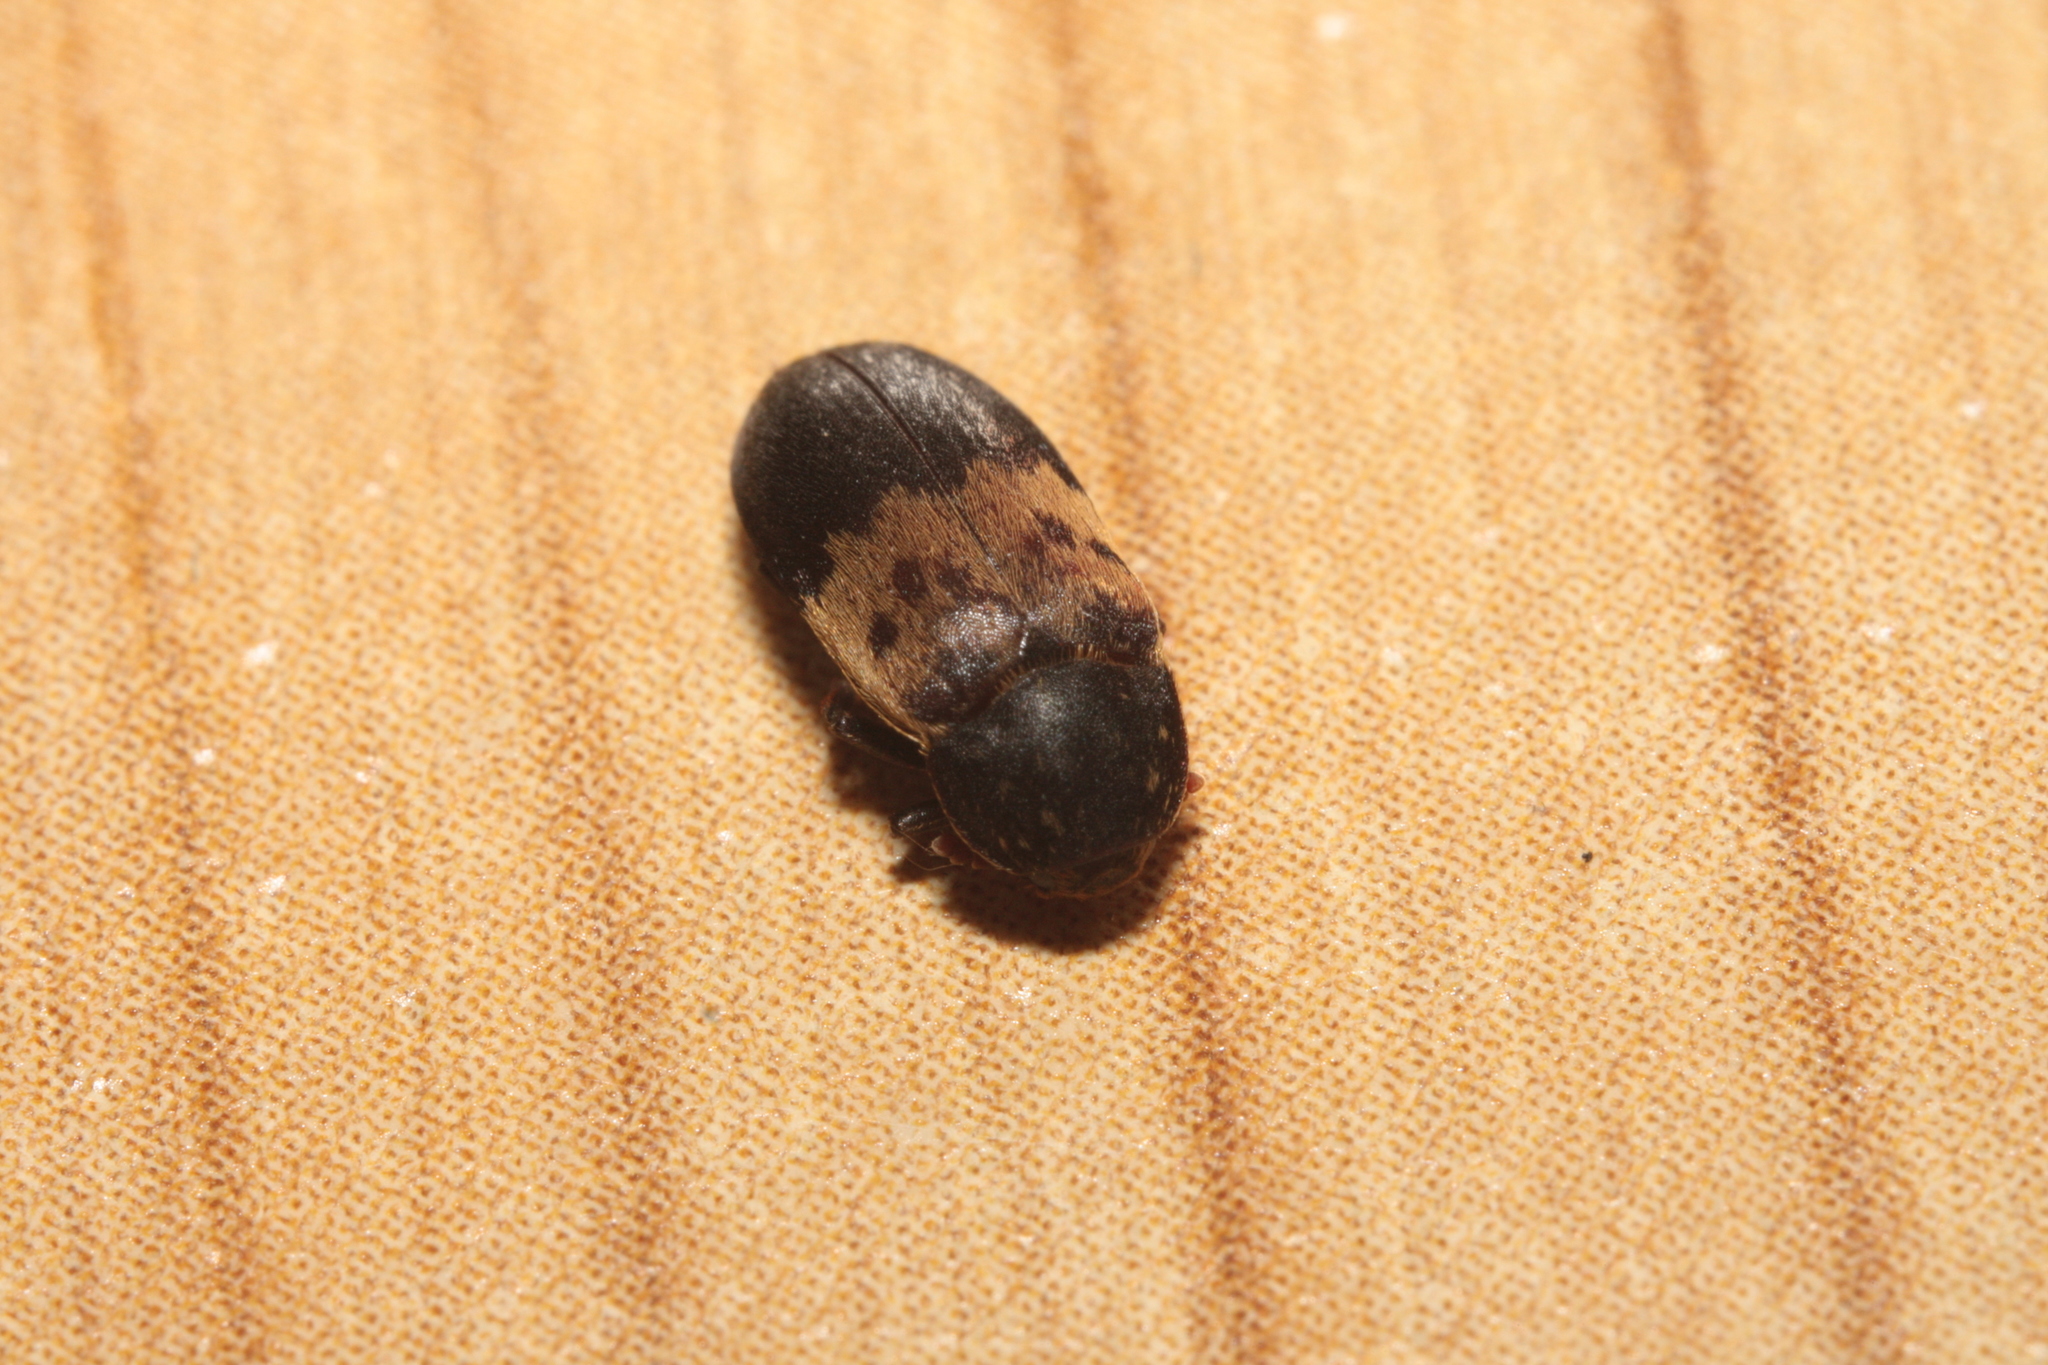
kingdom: Animalia
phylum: Arthropoda
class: Insecta
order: Coleoptera
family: Dermestidae
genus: Dermestes
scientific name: Dermestes lardarius
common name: Larder beetle
